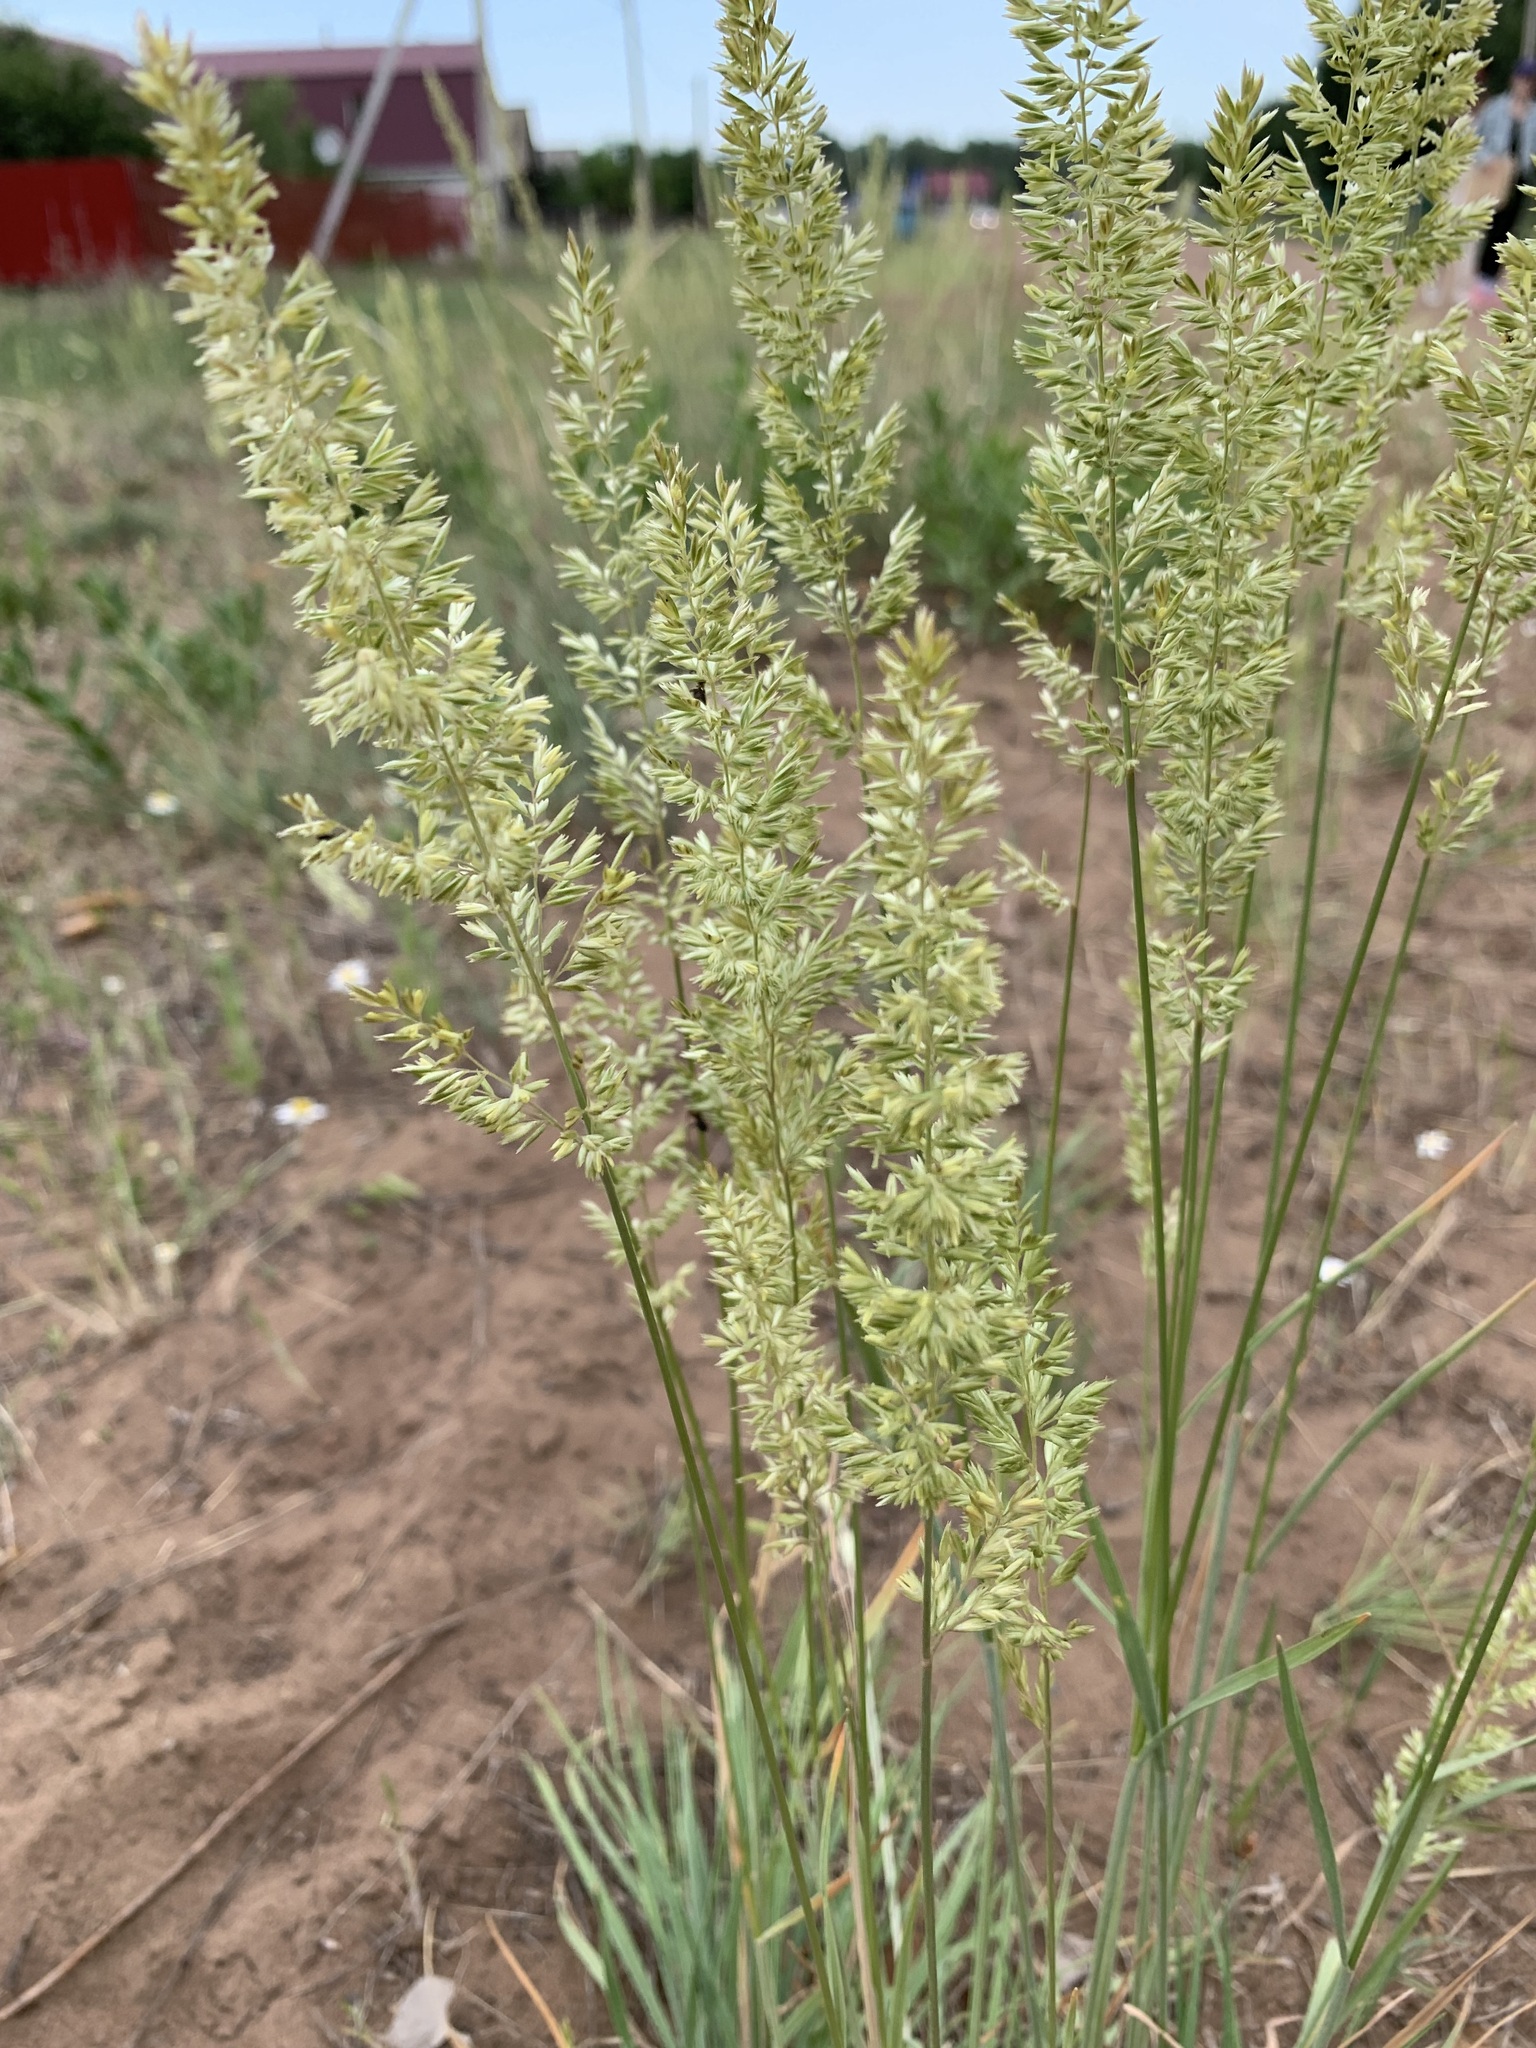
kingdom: Plantae
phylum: Tracheophyta
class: Liliopsida
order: Poales
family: Poaceae
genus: Koeleria
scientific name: Koeleria macrantha
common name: Crested hair-grass
